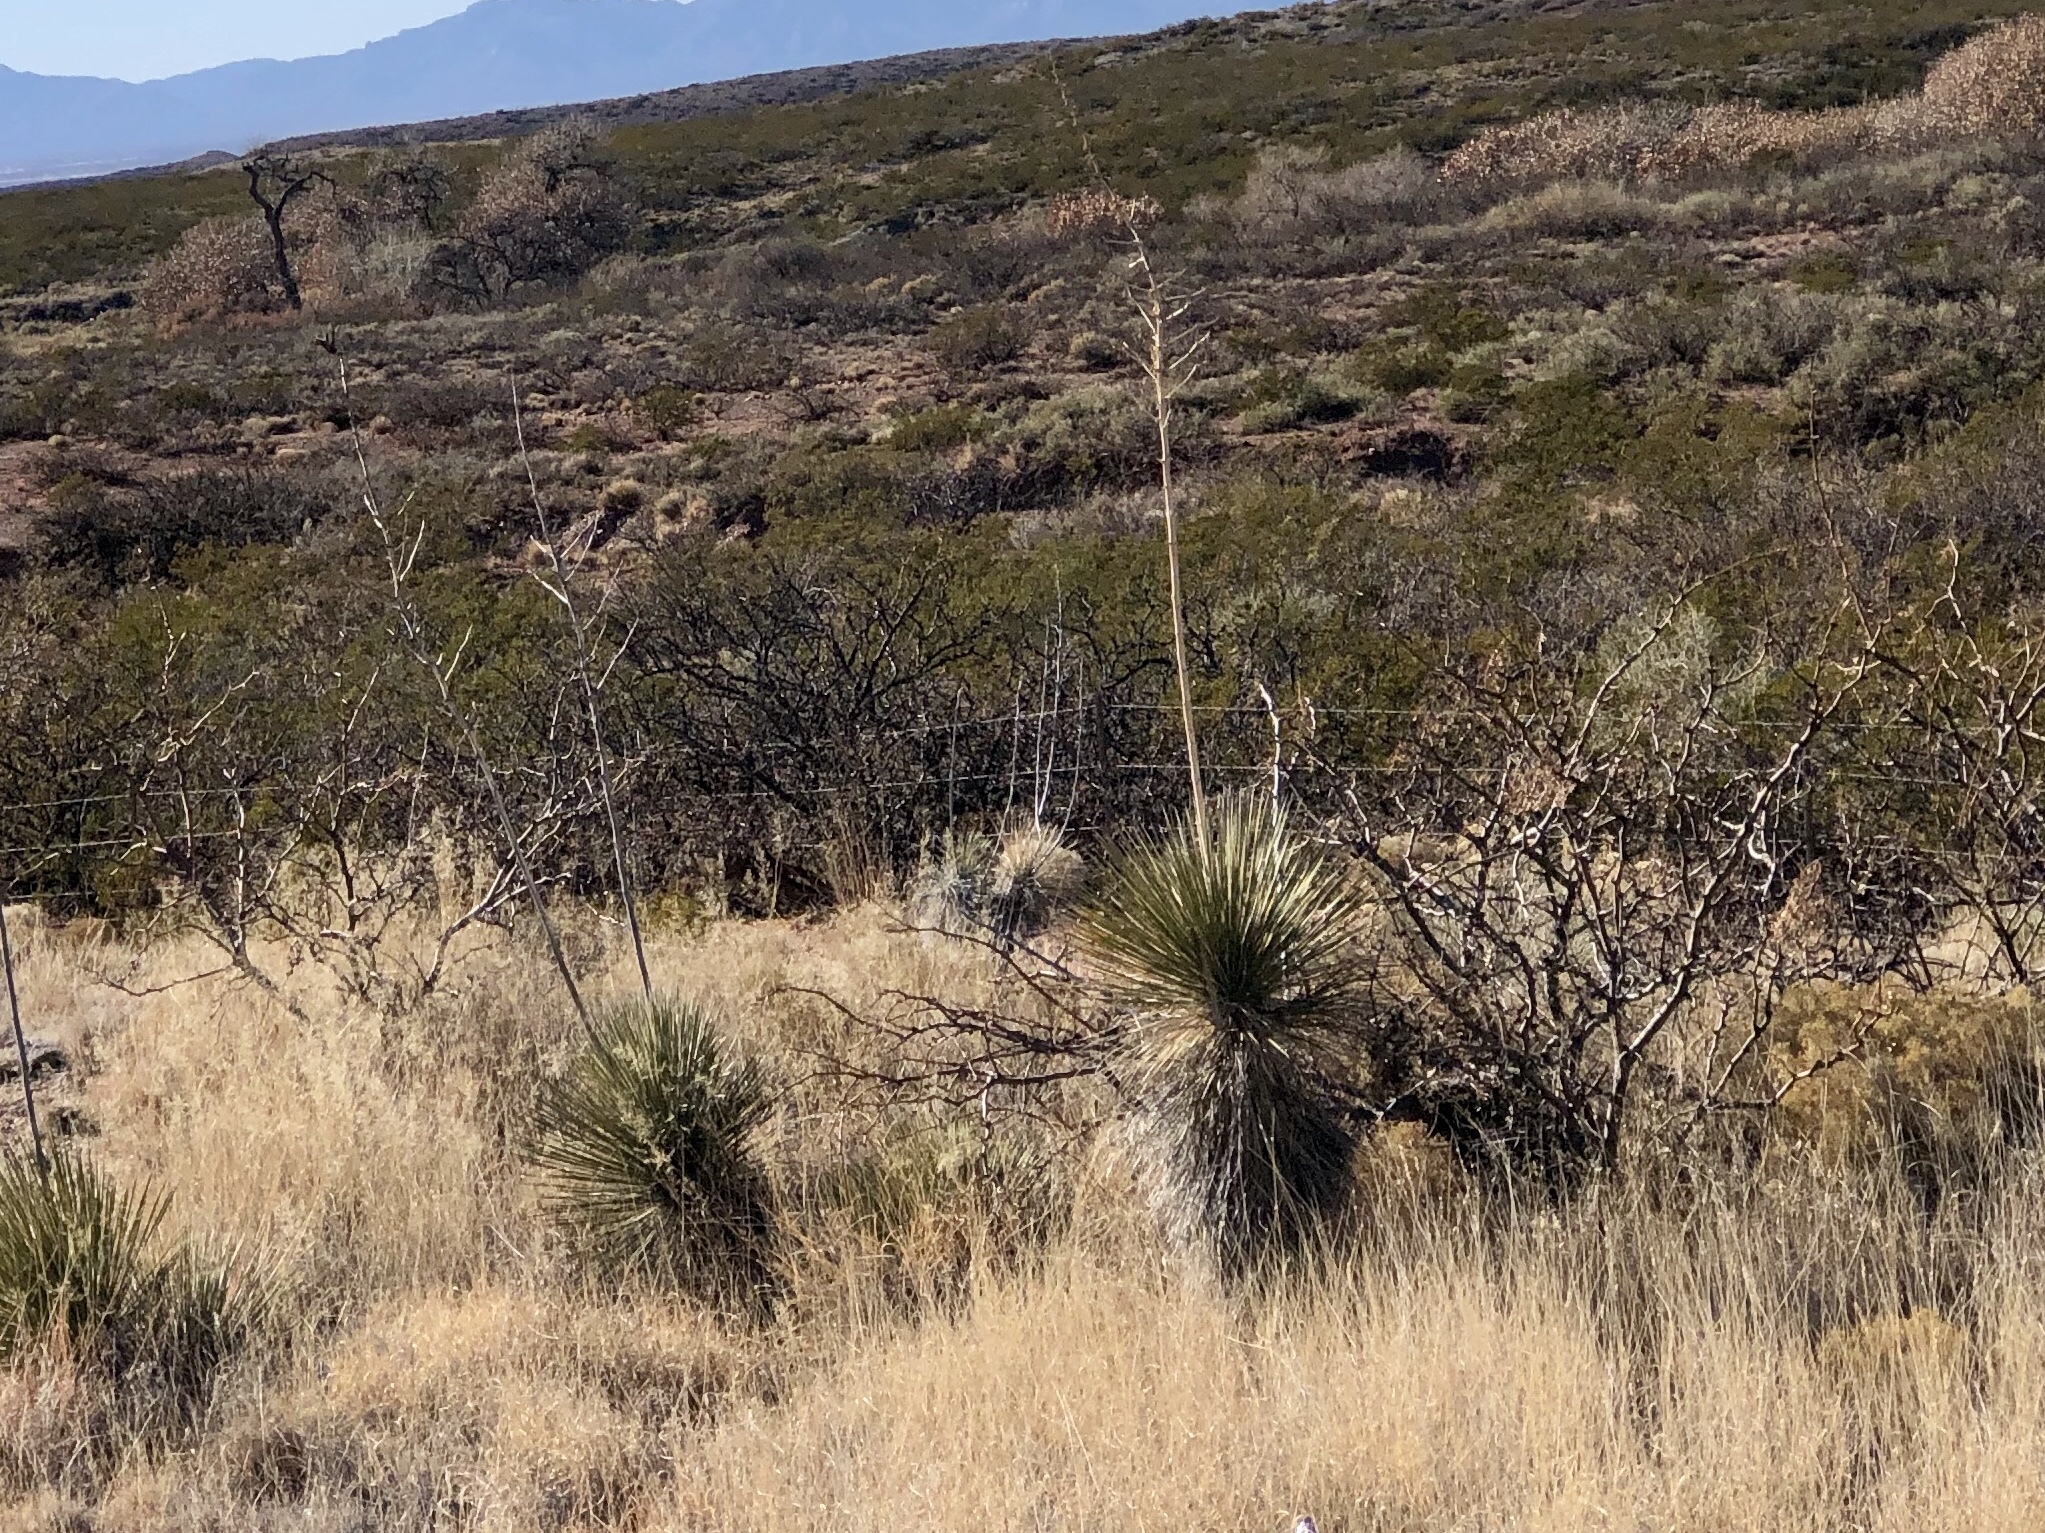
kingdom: Plantae
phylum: Tracheophyta
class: Liliopsida
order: Asparagales
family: Asparagaceae
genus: Yucca
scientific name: Yucca elata
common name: Palmella
